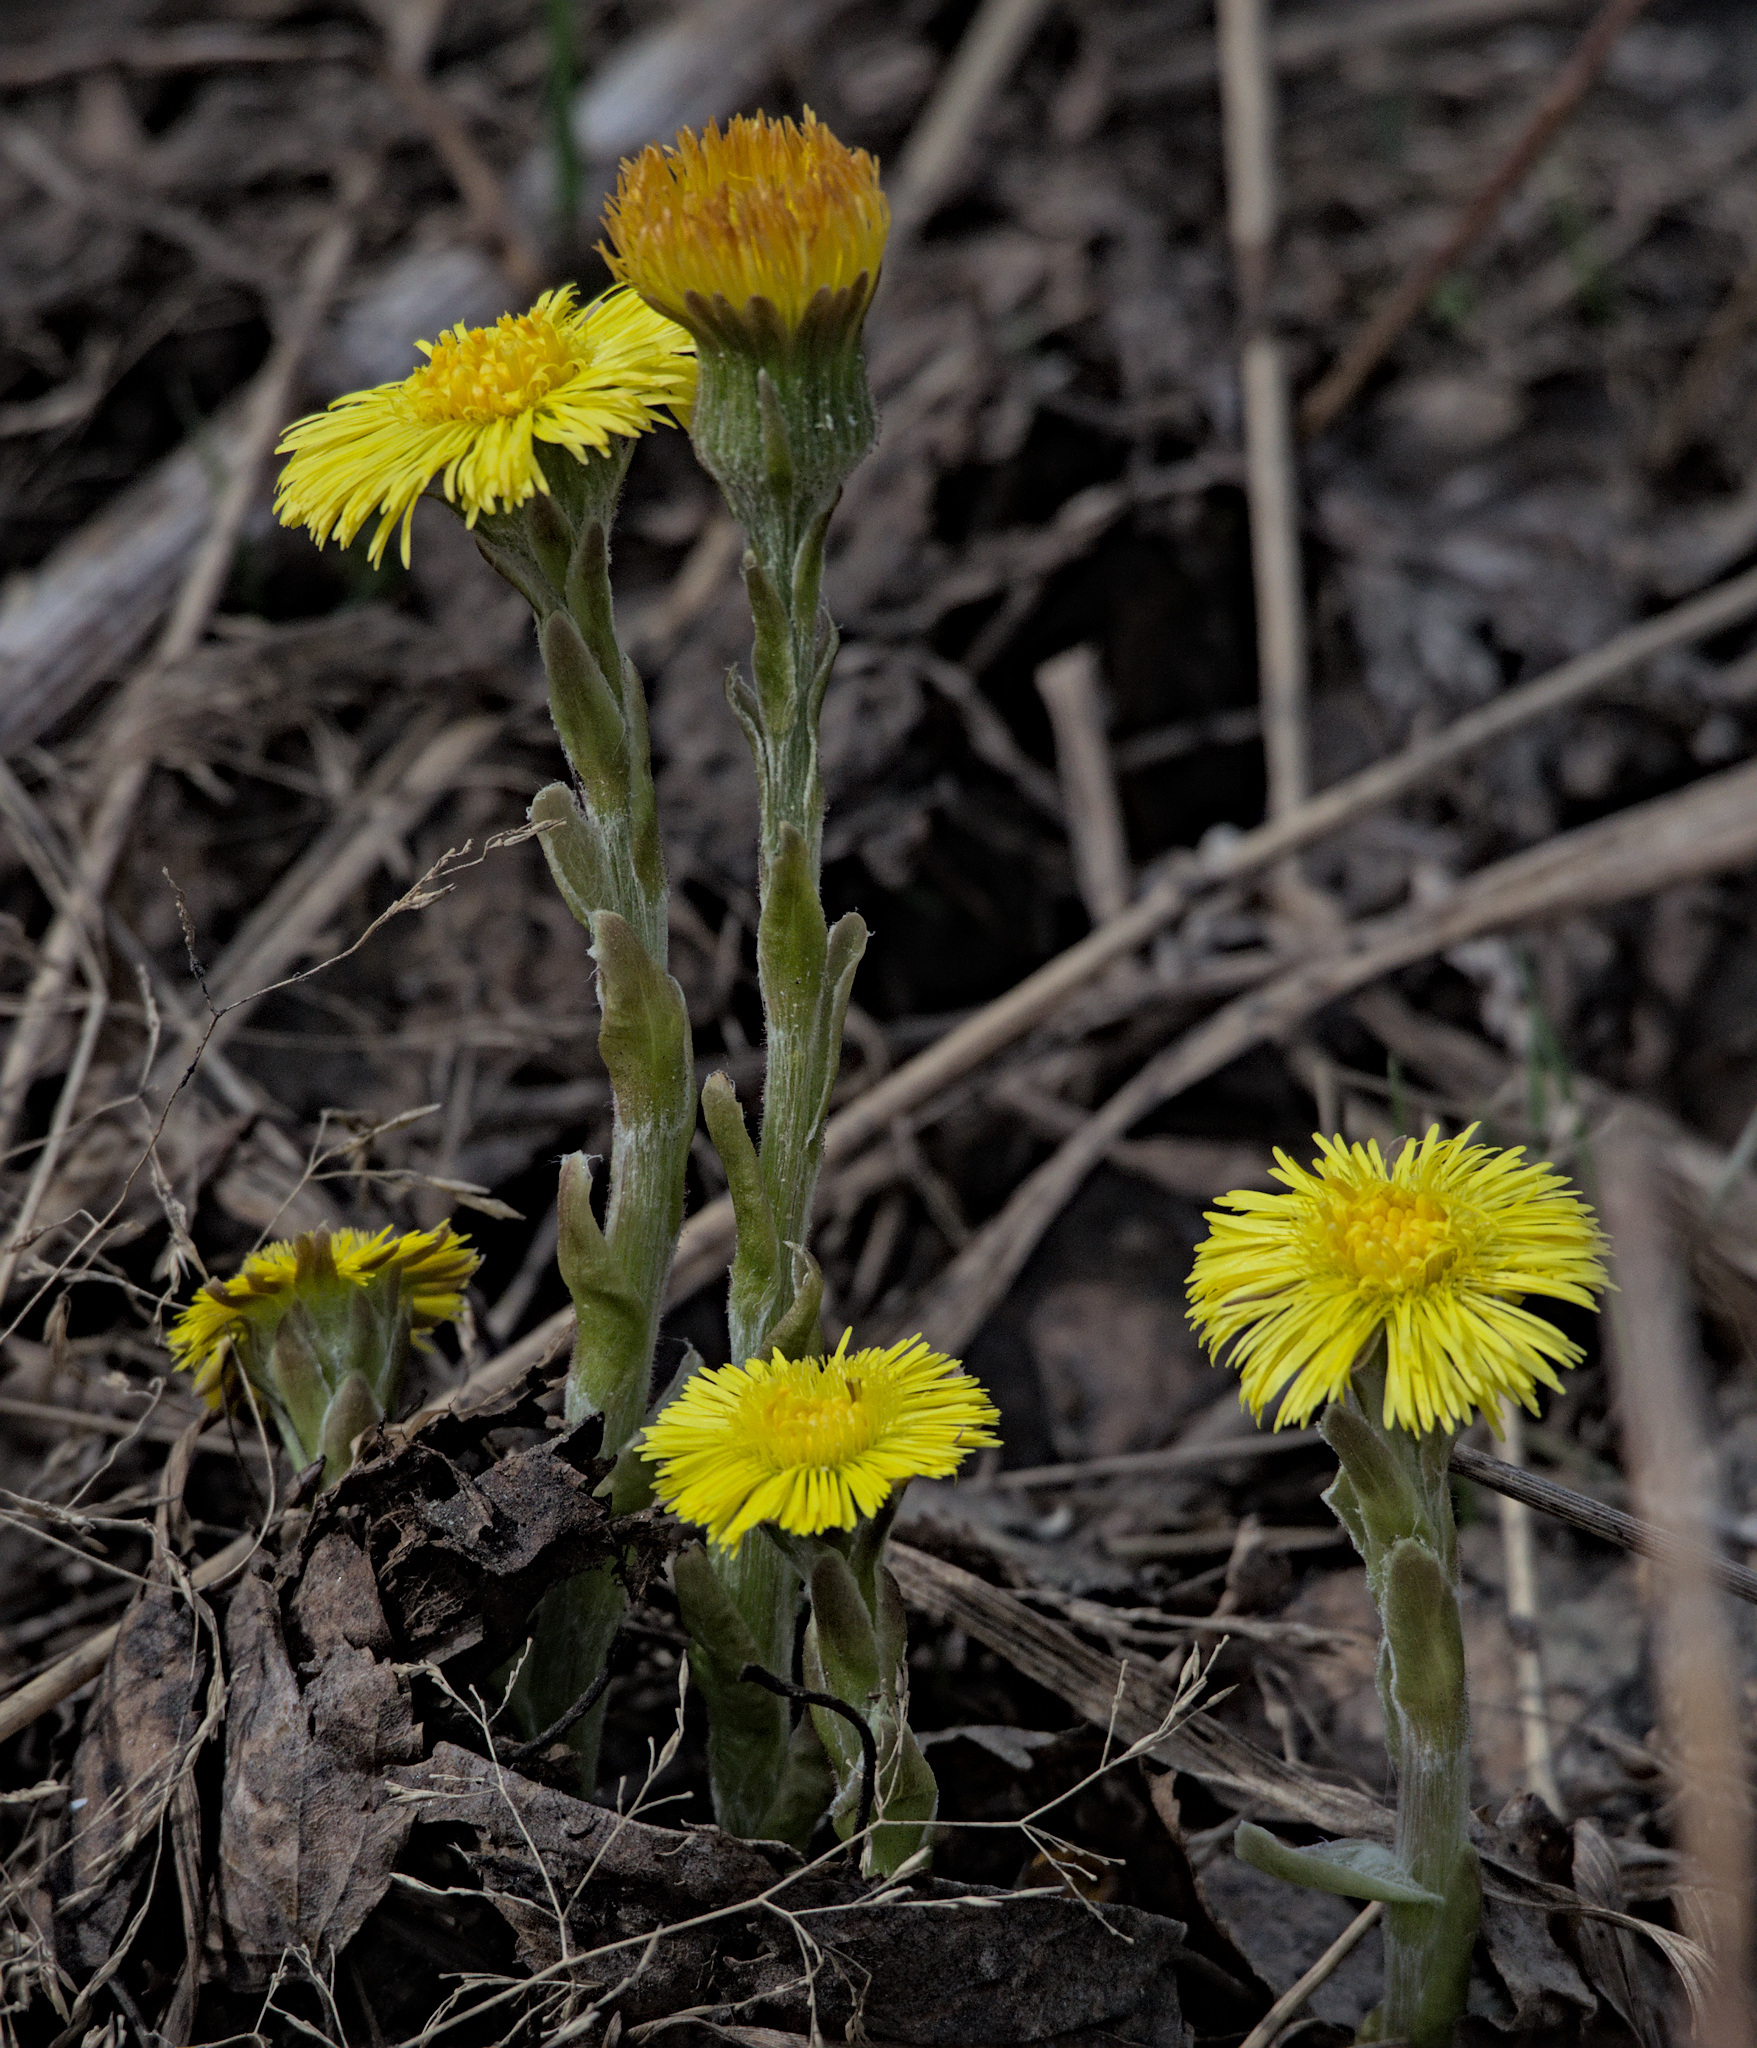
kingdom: Plantae
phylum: Tracheophyta
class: Magnoliopsida
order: Asterales
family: Asteraceae
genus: Tussilago
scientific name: Tussilago farfara
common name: Coltsfoot
